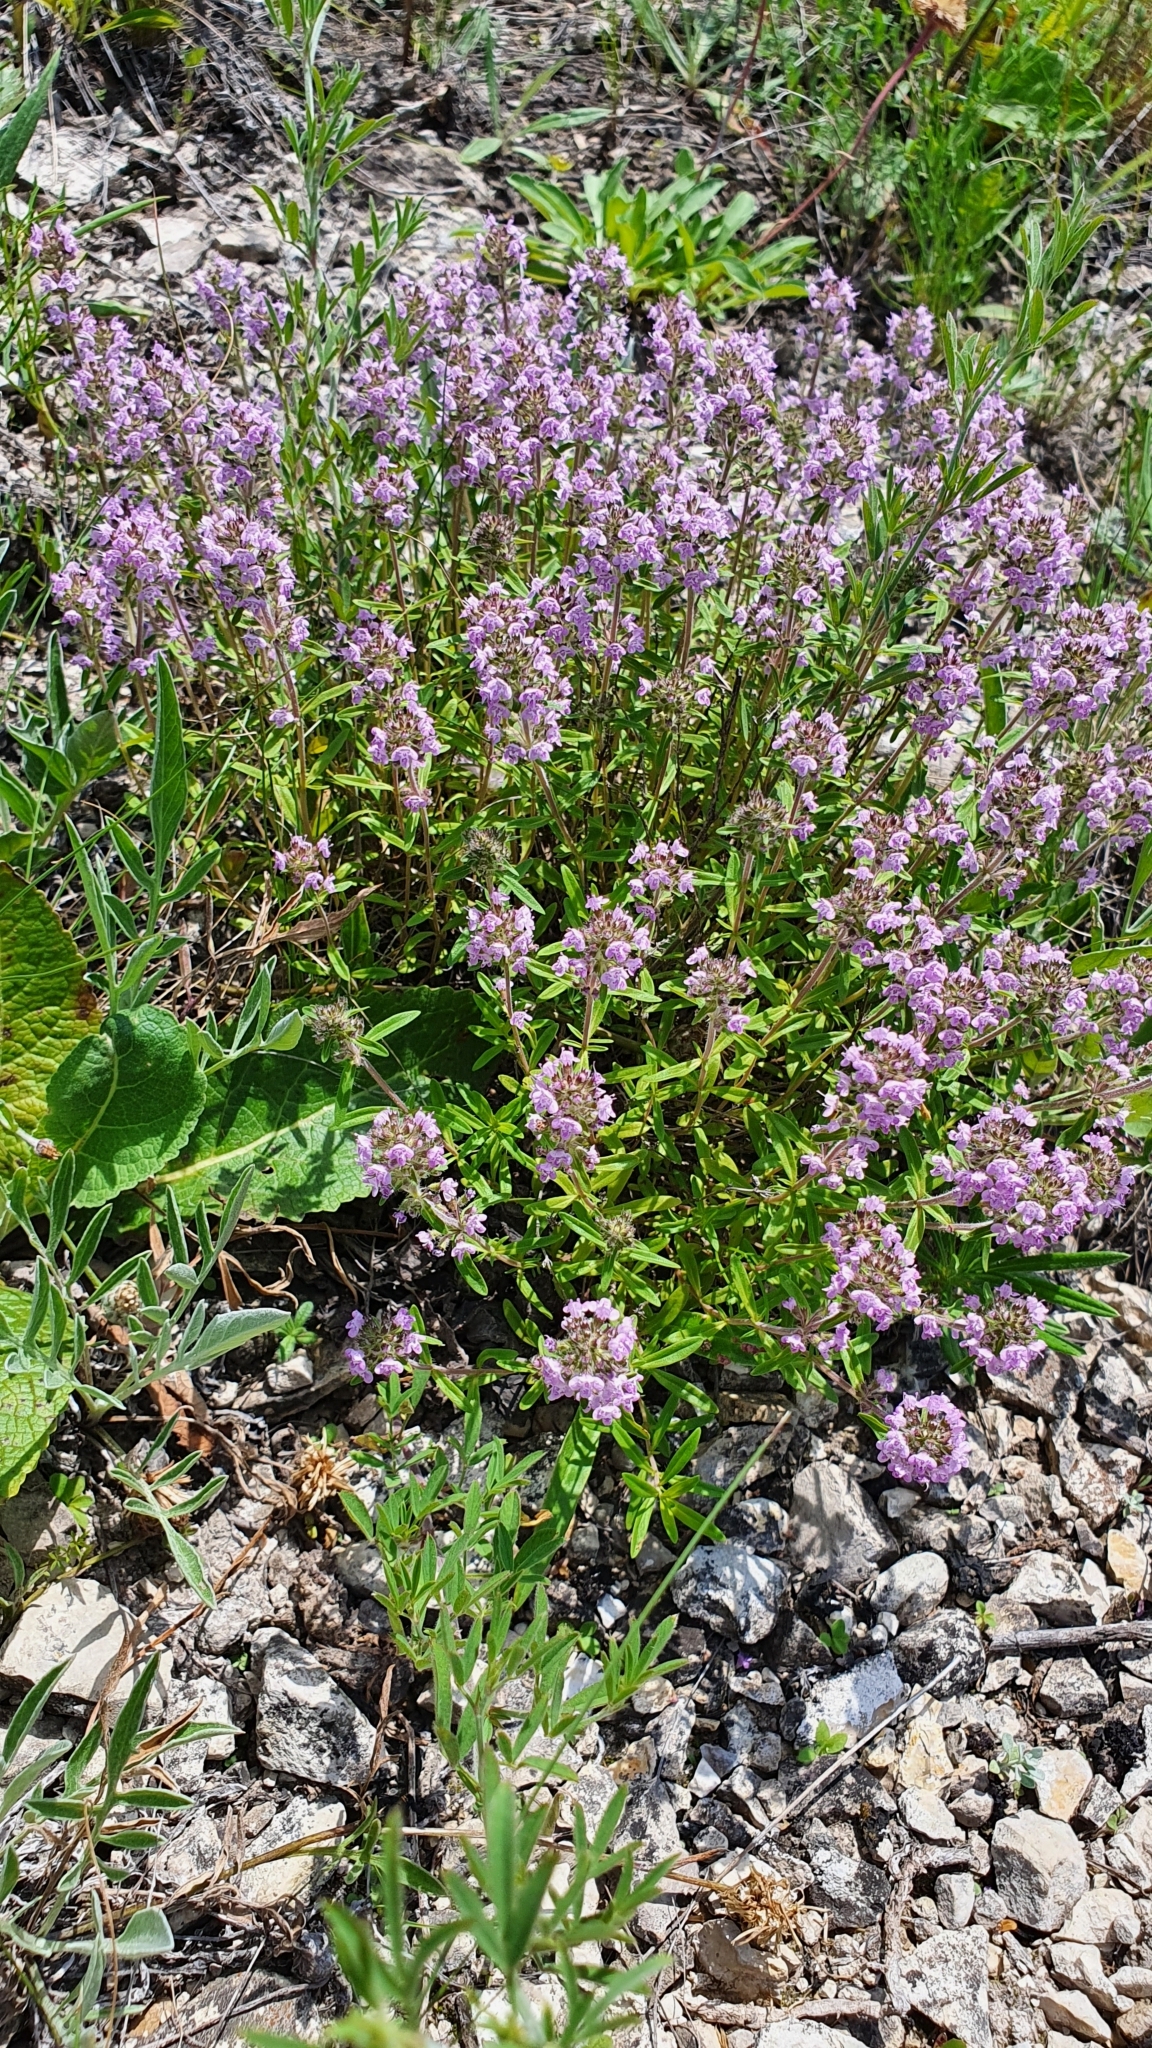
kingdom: Plantae
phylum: Tracheophyta
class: Magnoliopsida
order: Lamiales
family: Lamiaceae
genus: Thymus
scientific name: Thymus pannonicus
